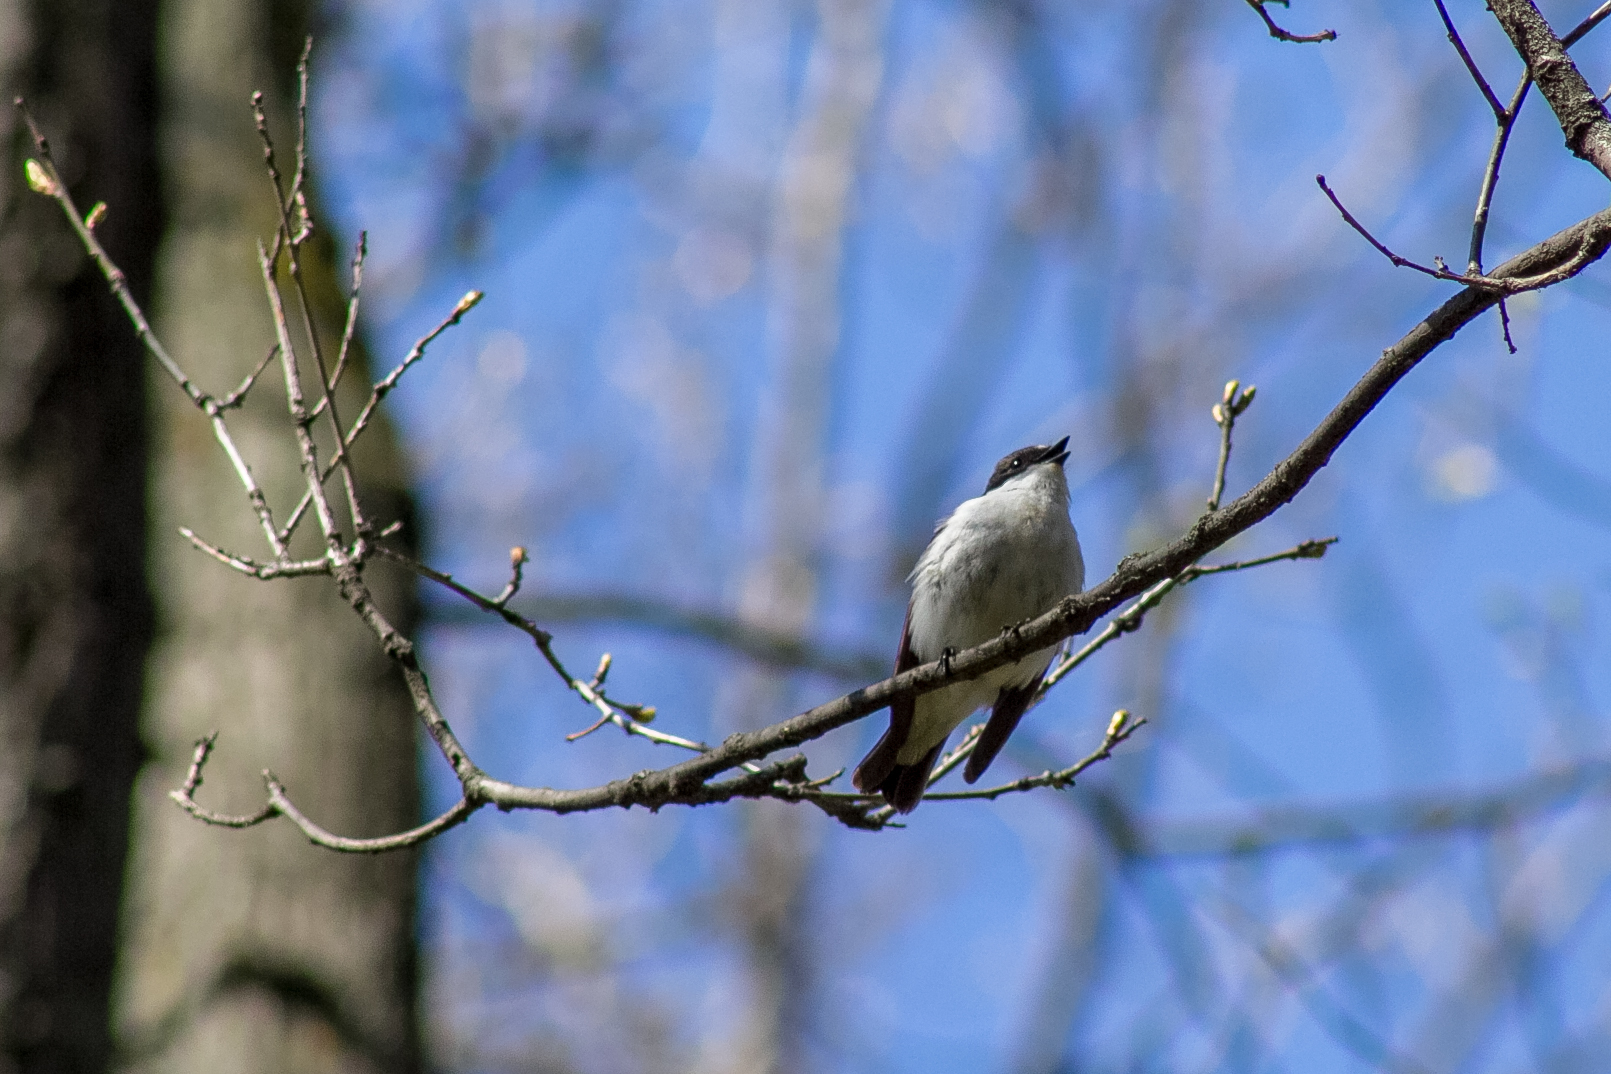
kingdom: Animalia
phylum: Chordata
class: Aves
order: Passeriformes
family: Muscicapidae
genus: Ficedula
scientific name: Ficedula hypoleuca
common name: European pied flycatcher
